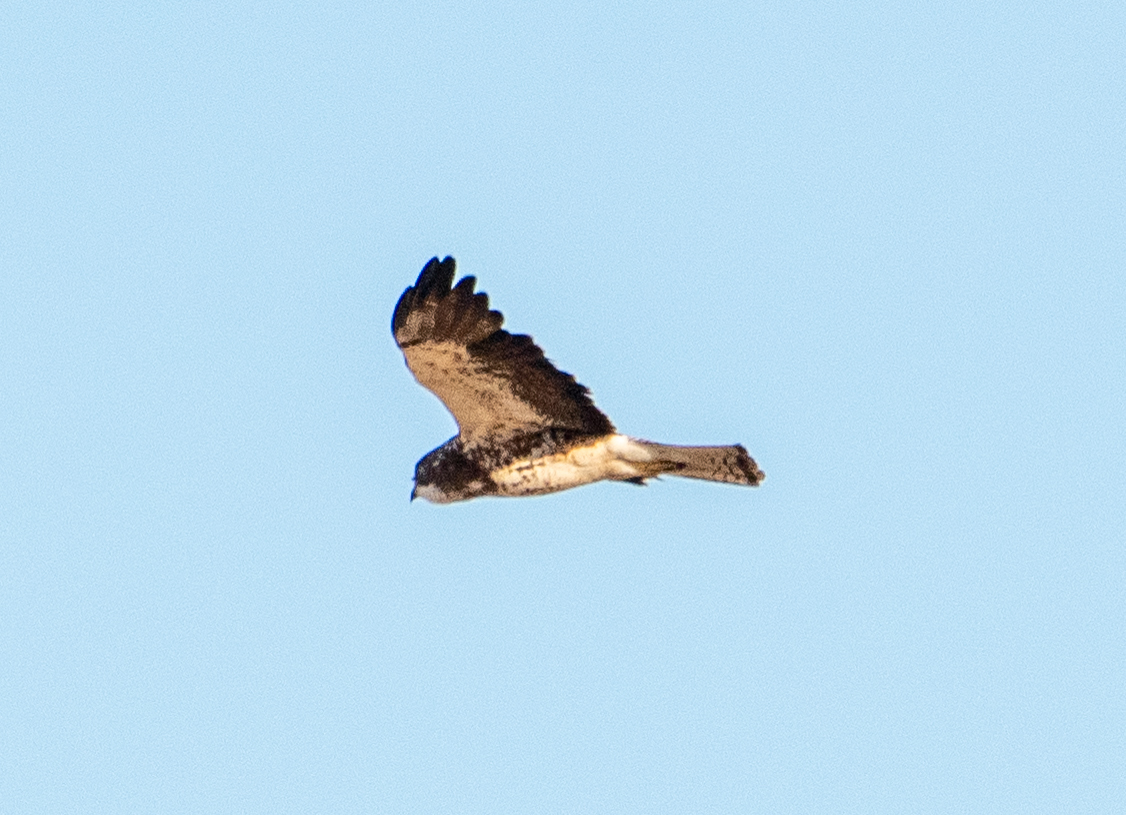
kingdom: Animalia
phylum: Chordata
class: Aves
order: Accipitriformes
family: Accipitridae
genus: Buteo
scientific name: Buteo swainsoni
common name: Swainson's hawk
